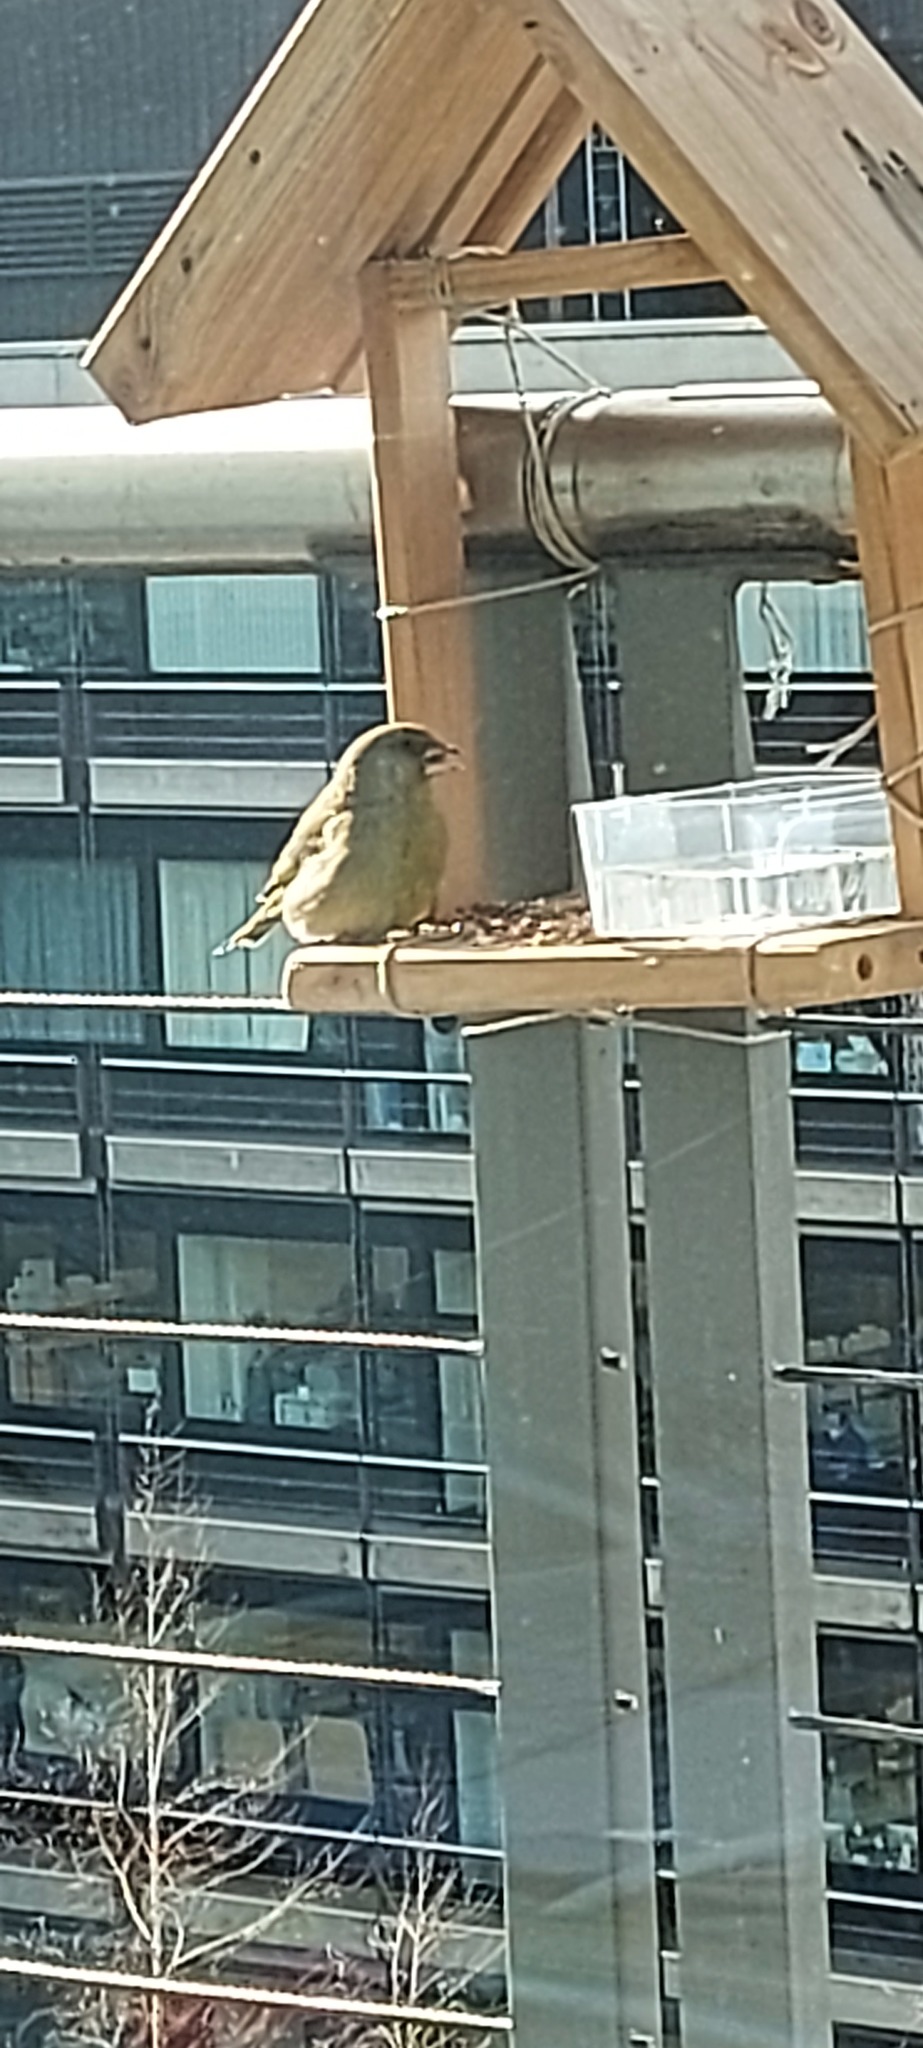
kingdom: Plantae
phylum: Tracheophyta
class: Liliopsida
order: Poales
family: Poaceae
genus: Chloris
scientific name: Chloris chloris
